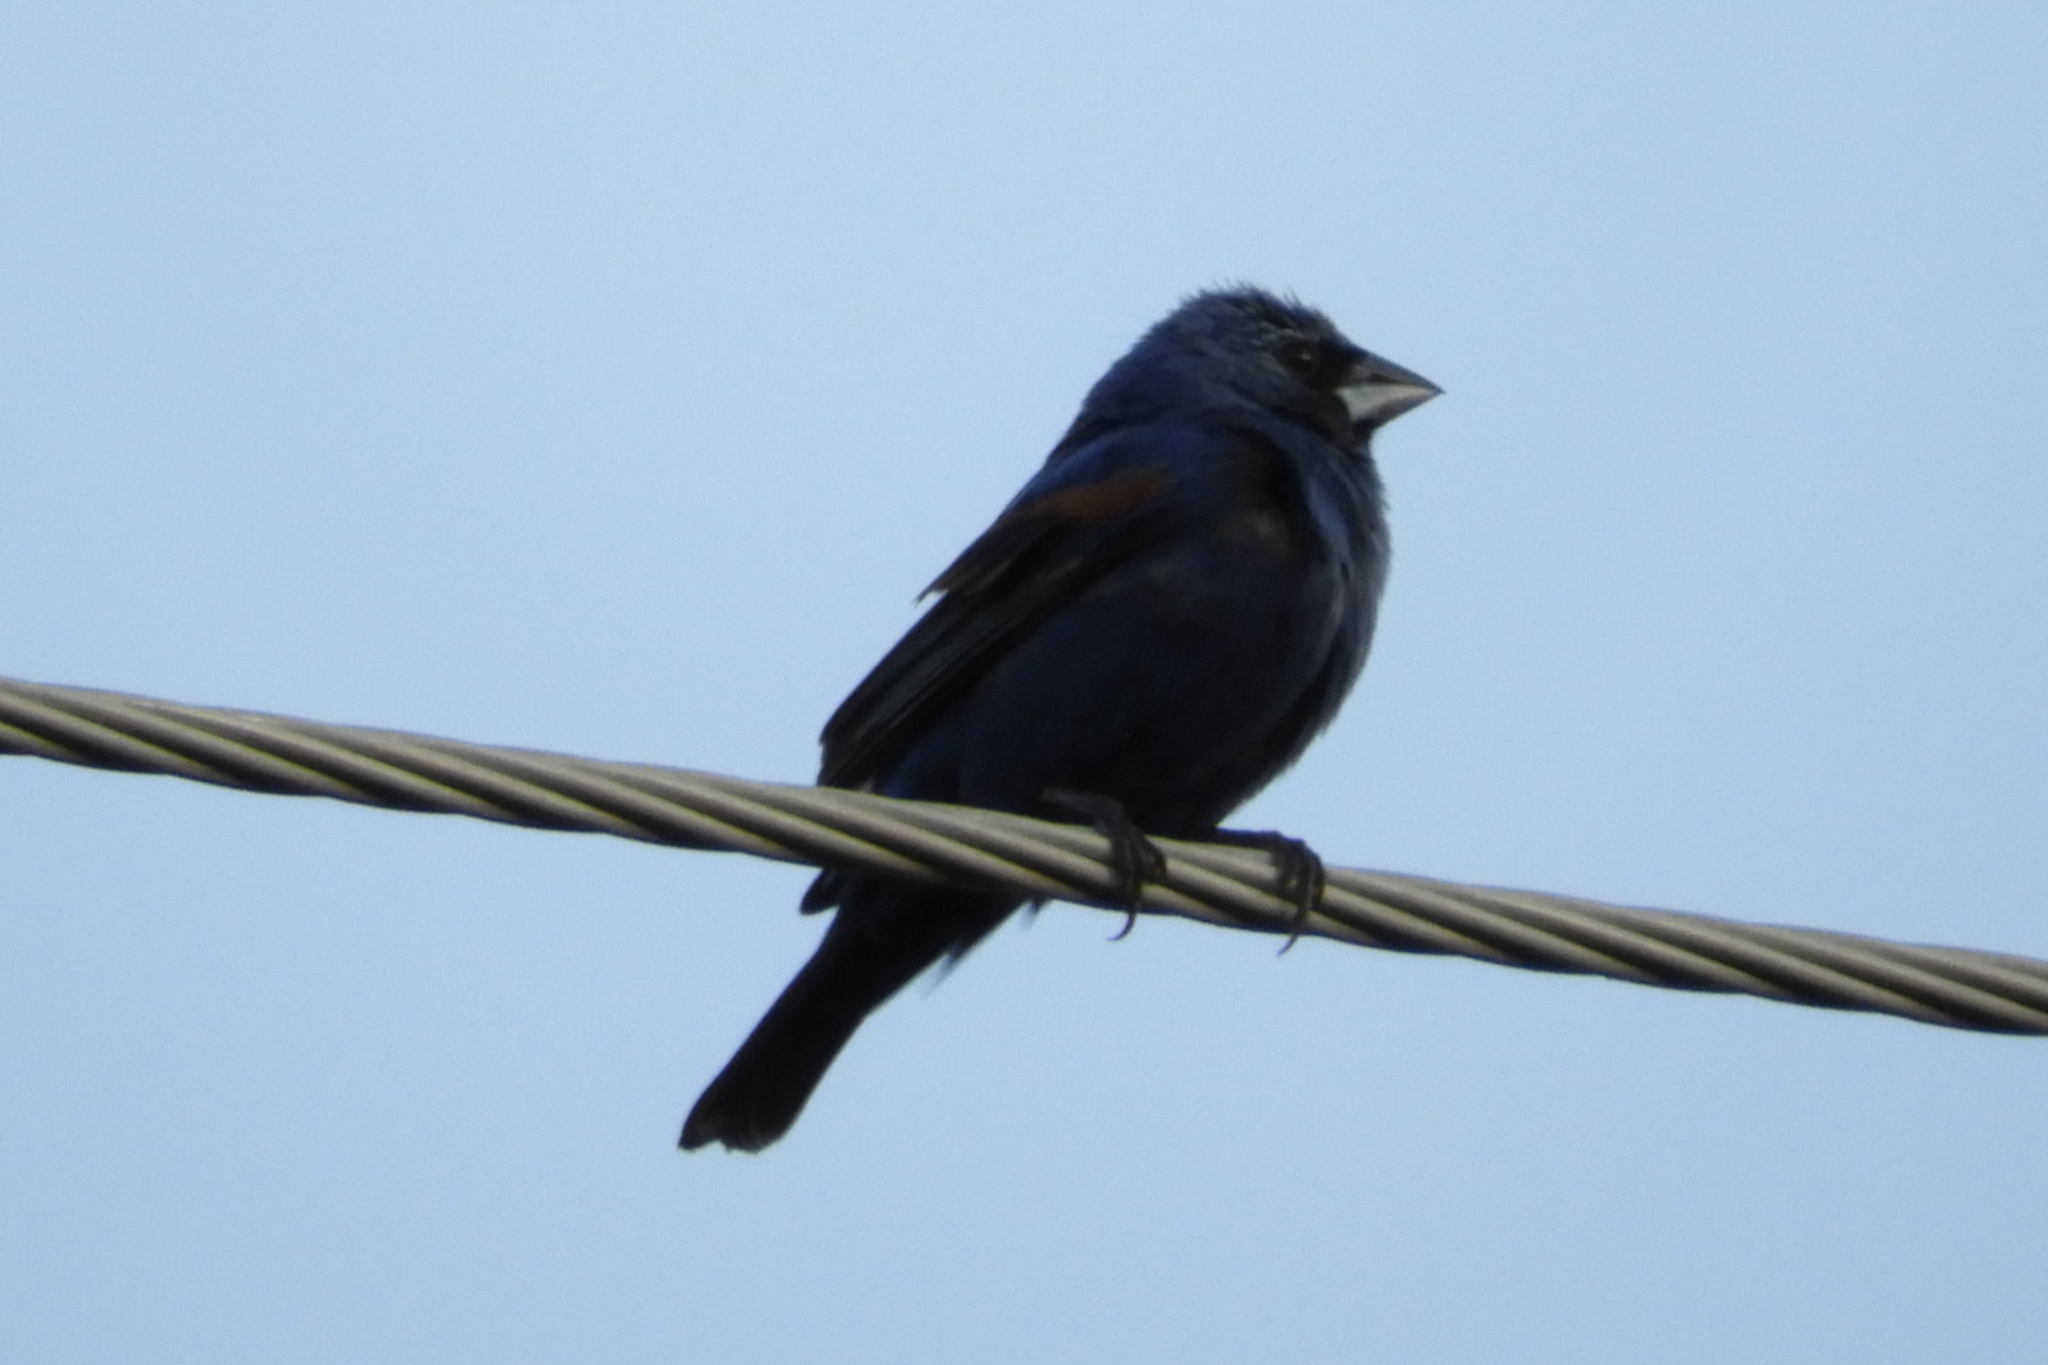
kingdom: Animalia
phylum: Chordata
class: Aves
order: Passeriformes
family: Cardinalidae
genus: Passerina
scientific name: Passerina caerulea
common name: Blue grosbeak
